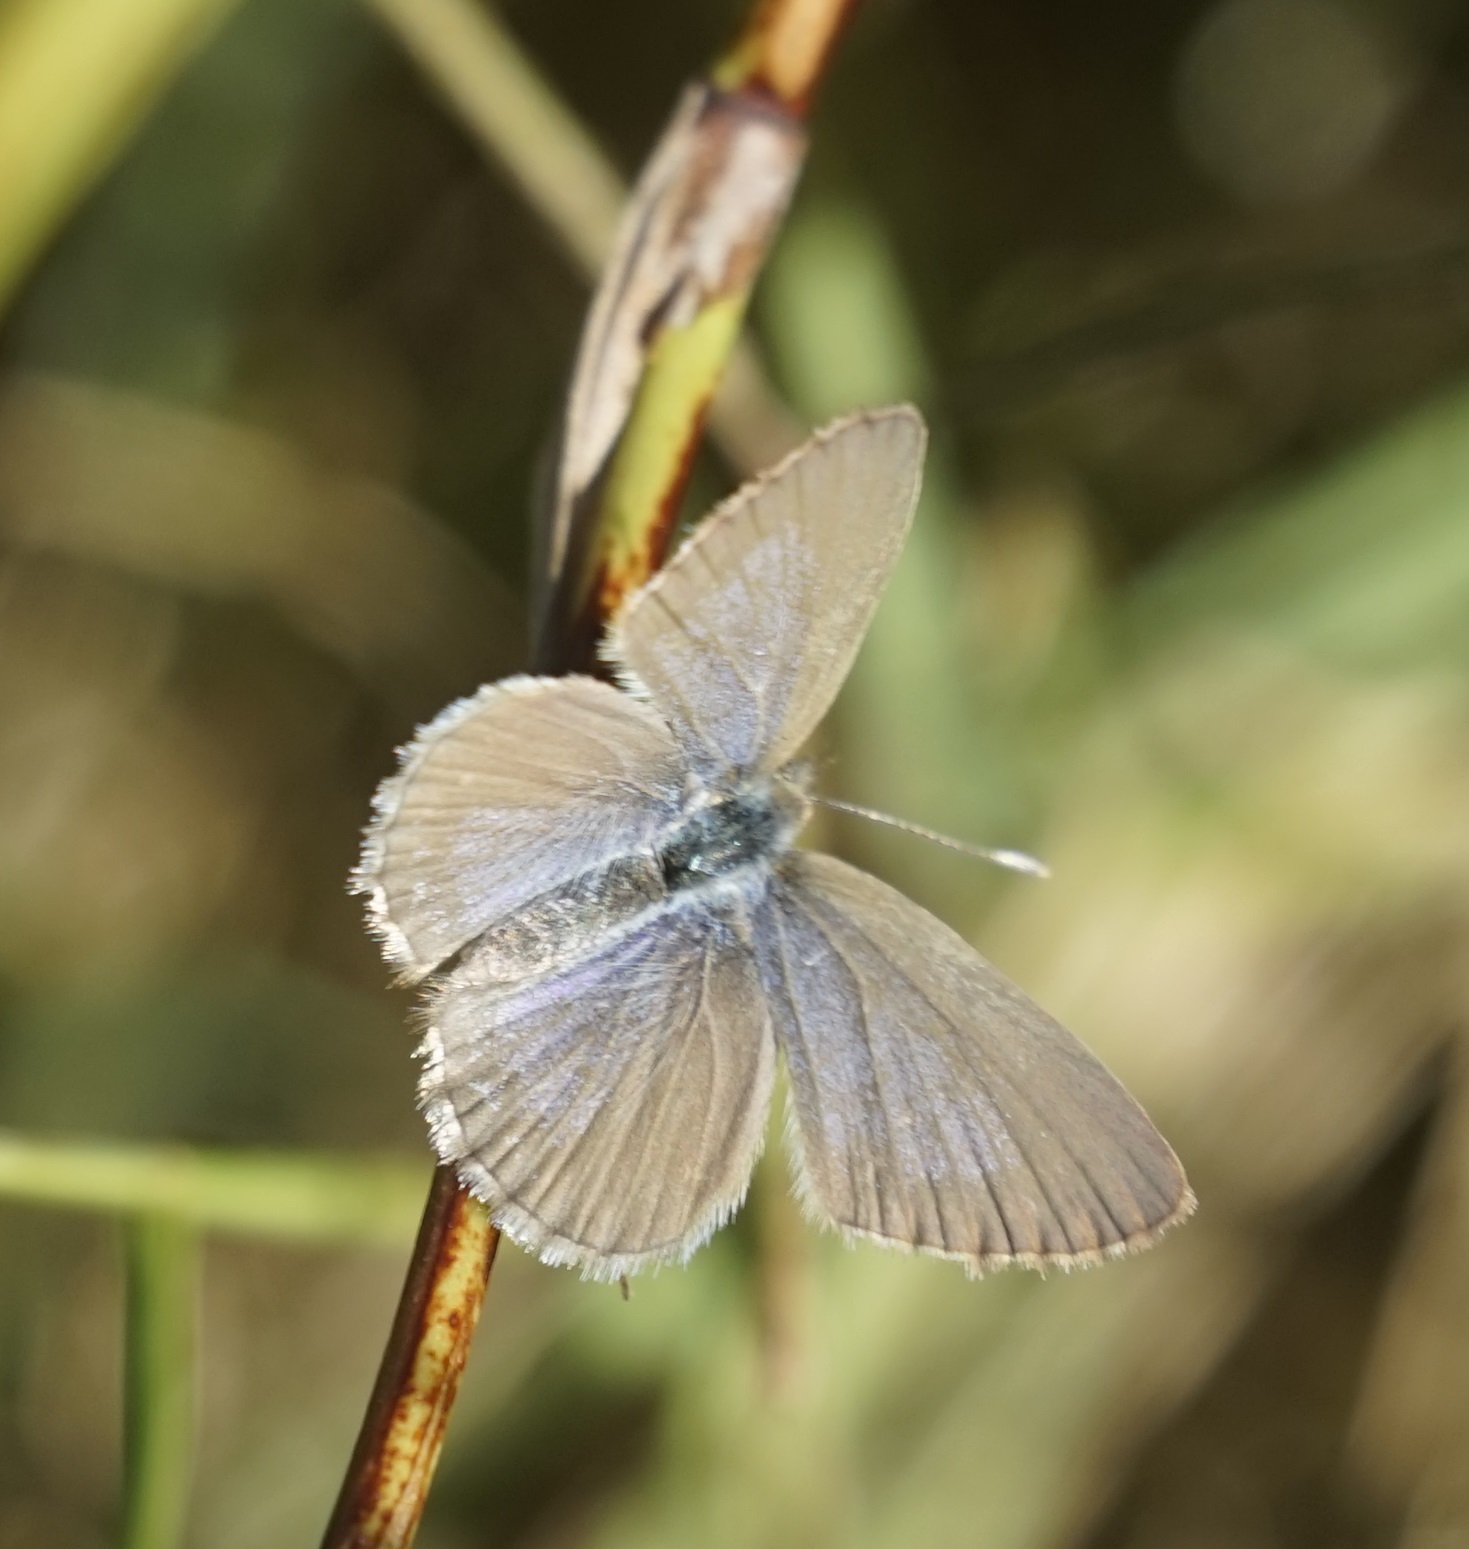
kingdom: Animalia
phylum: Arthropoda
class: Insecta
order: Lepidoptera
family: Lycaenidae
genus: Zizina
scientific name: Zizina labradus
